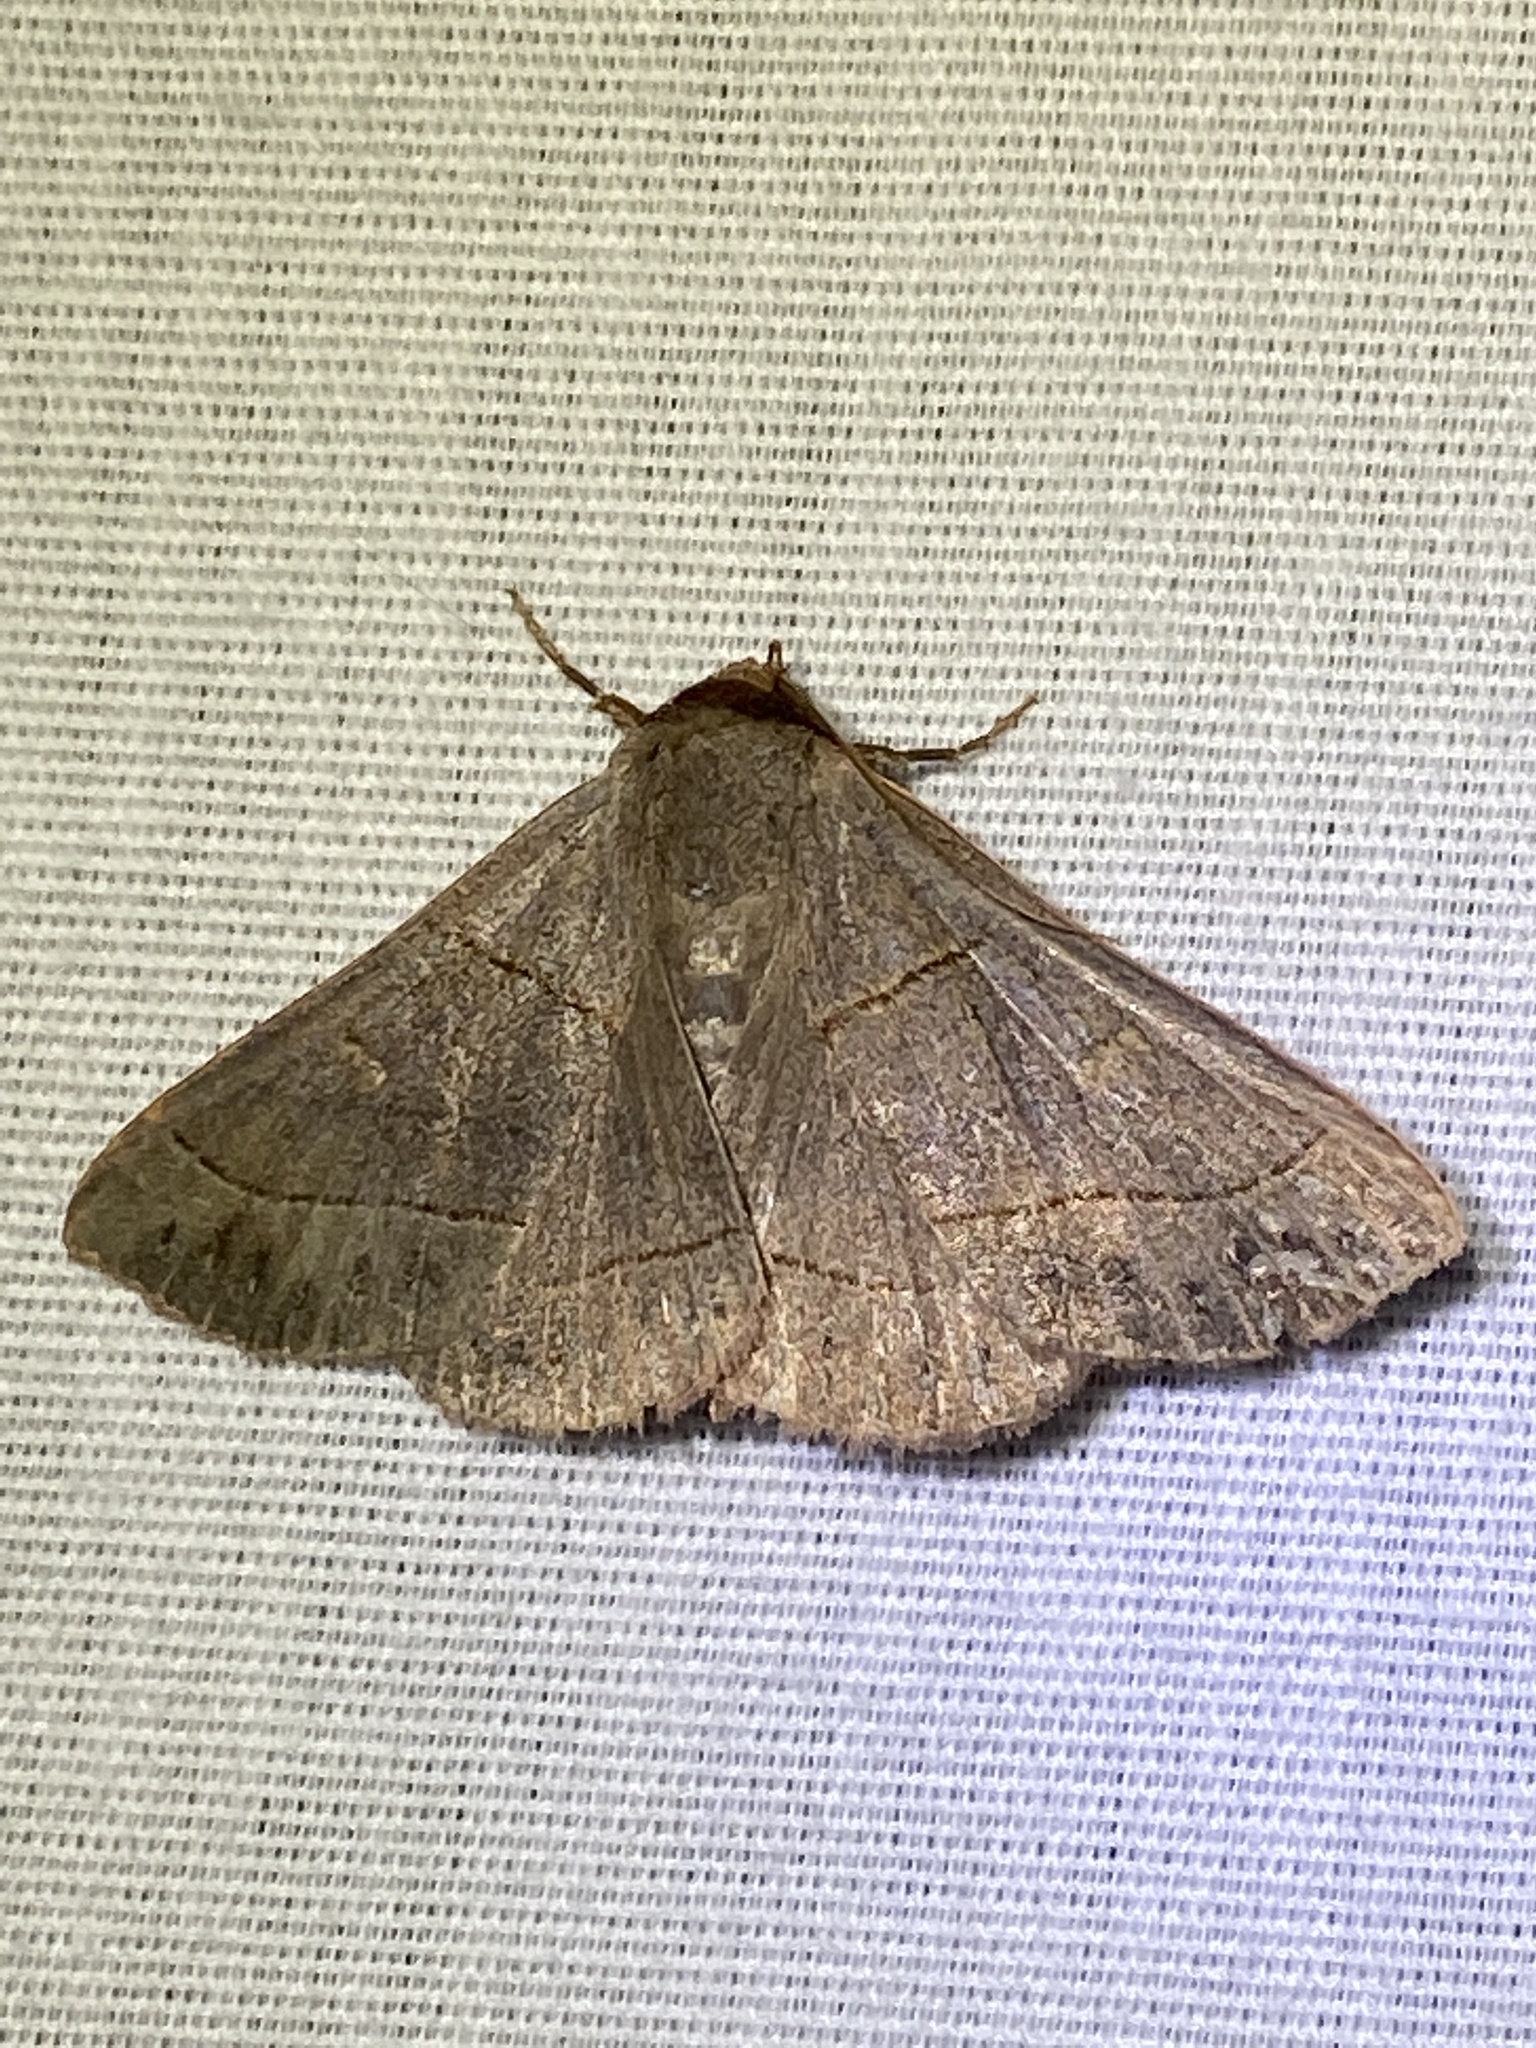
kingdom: Animalia
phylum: Arthropoda
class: Insecta
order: Lepidoptera
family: Erebidae
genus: Panopoda
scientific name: Panopoda rufimargo
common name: Red-lined panopoda moth
